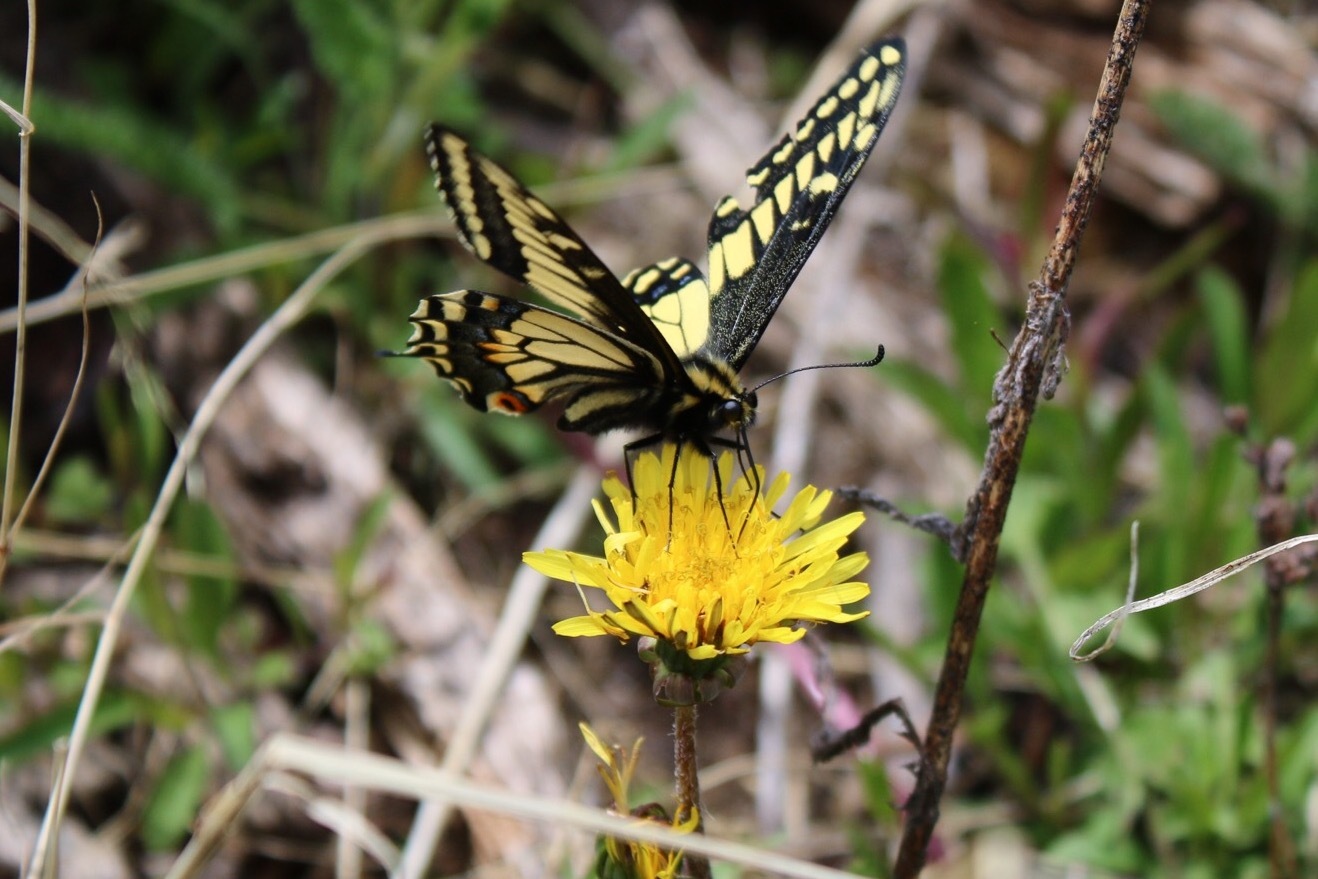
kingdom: Animalia
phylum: Arthropoda
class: Insecta
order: Lepidoptera
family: Papilionidae
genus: Papilio
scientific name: Papilio zelicaon
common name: Anise swallowtail
